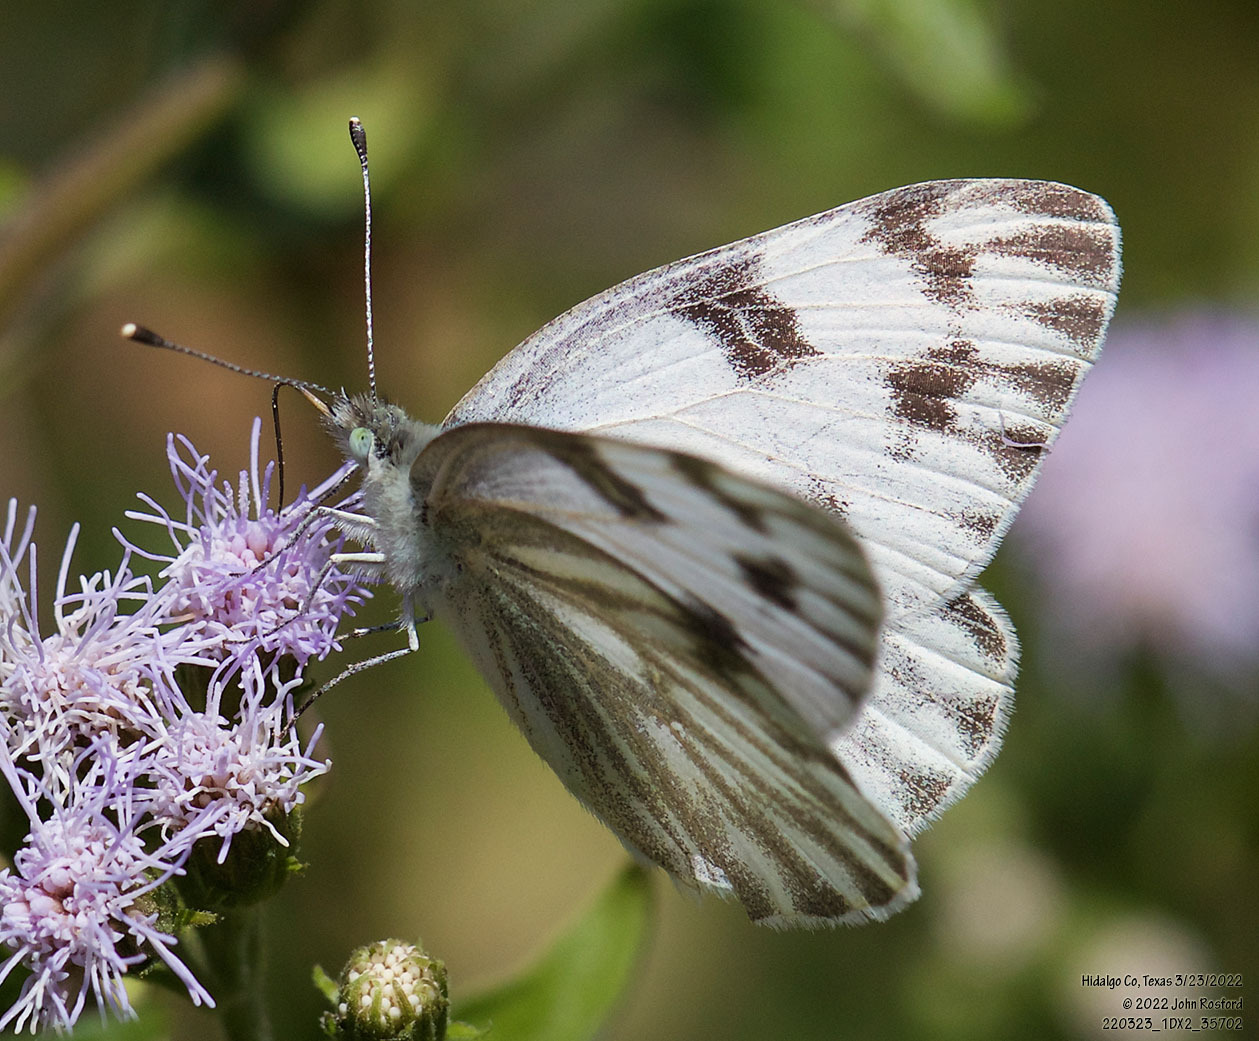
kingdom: Animalia
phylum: Arthropoda
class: Insecta
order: Lepidoptera
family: Pieridae
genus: Pontia
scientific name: Pontia protodice
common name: Checkered white
